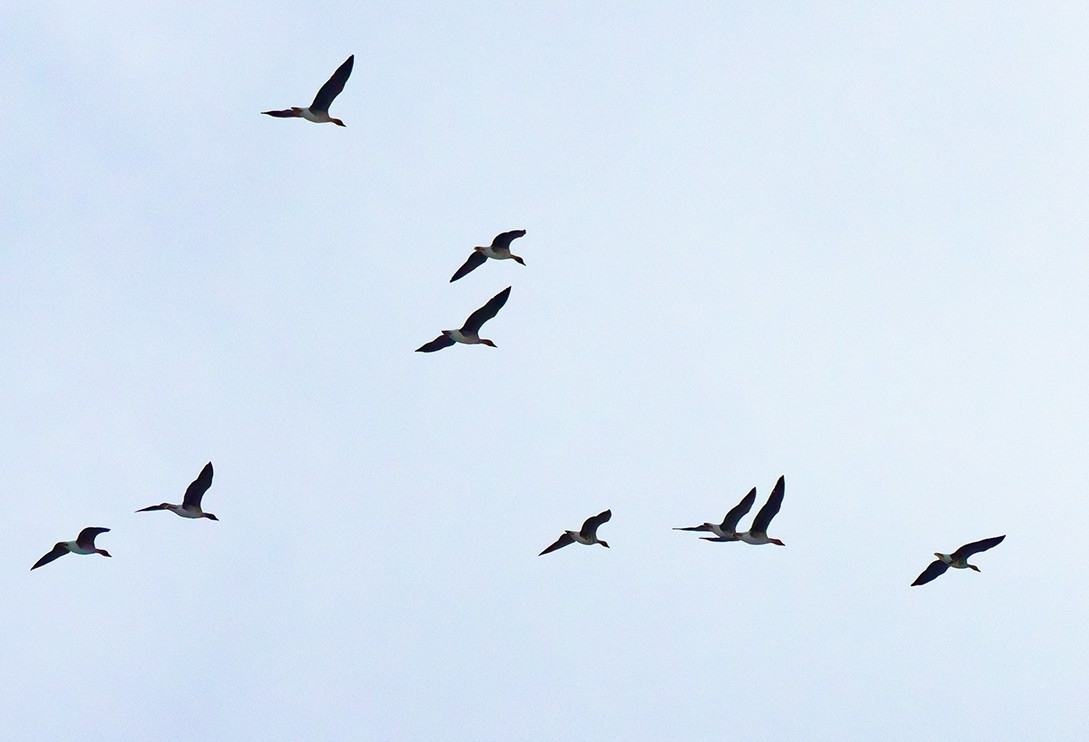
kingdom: Animalia
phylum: Chordata
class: Aves
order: Anseriformes
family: Anatidae
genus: Anser
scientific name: Anser fabalis
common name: Bean goose
